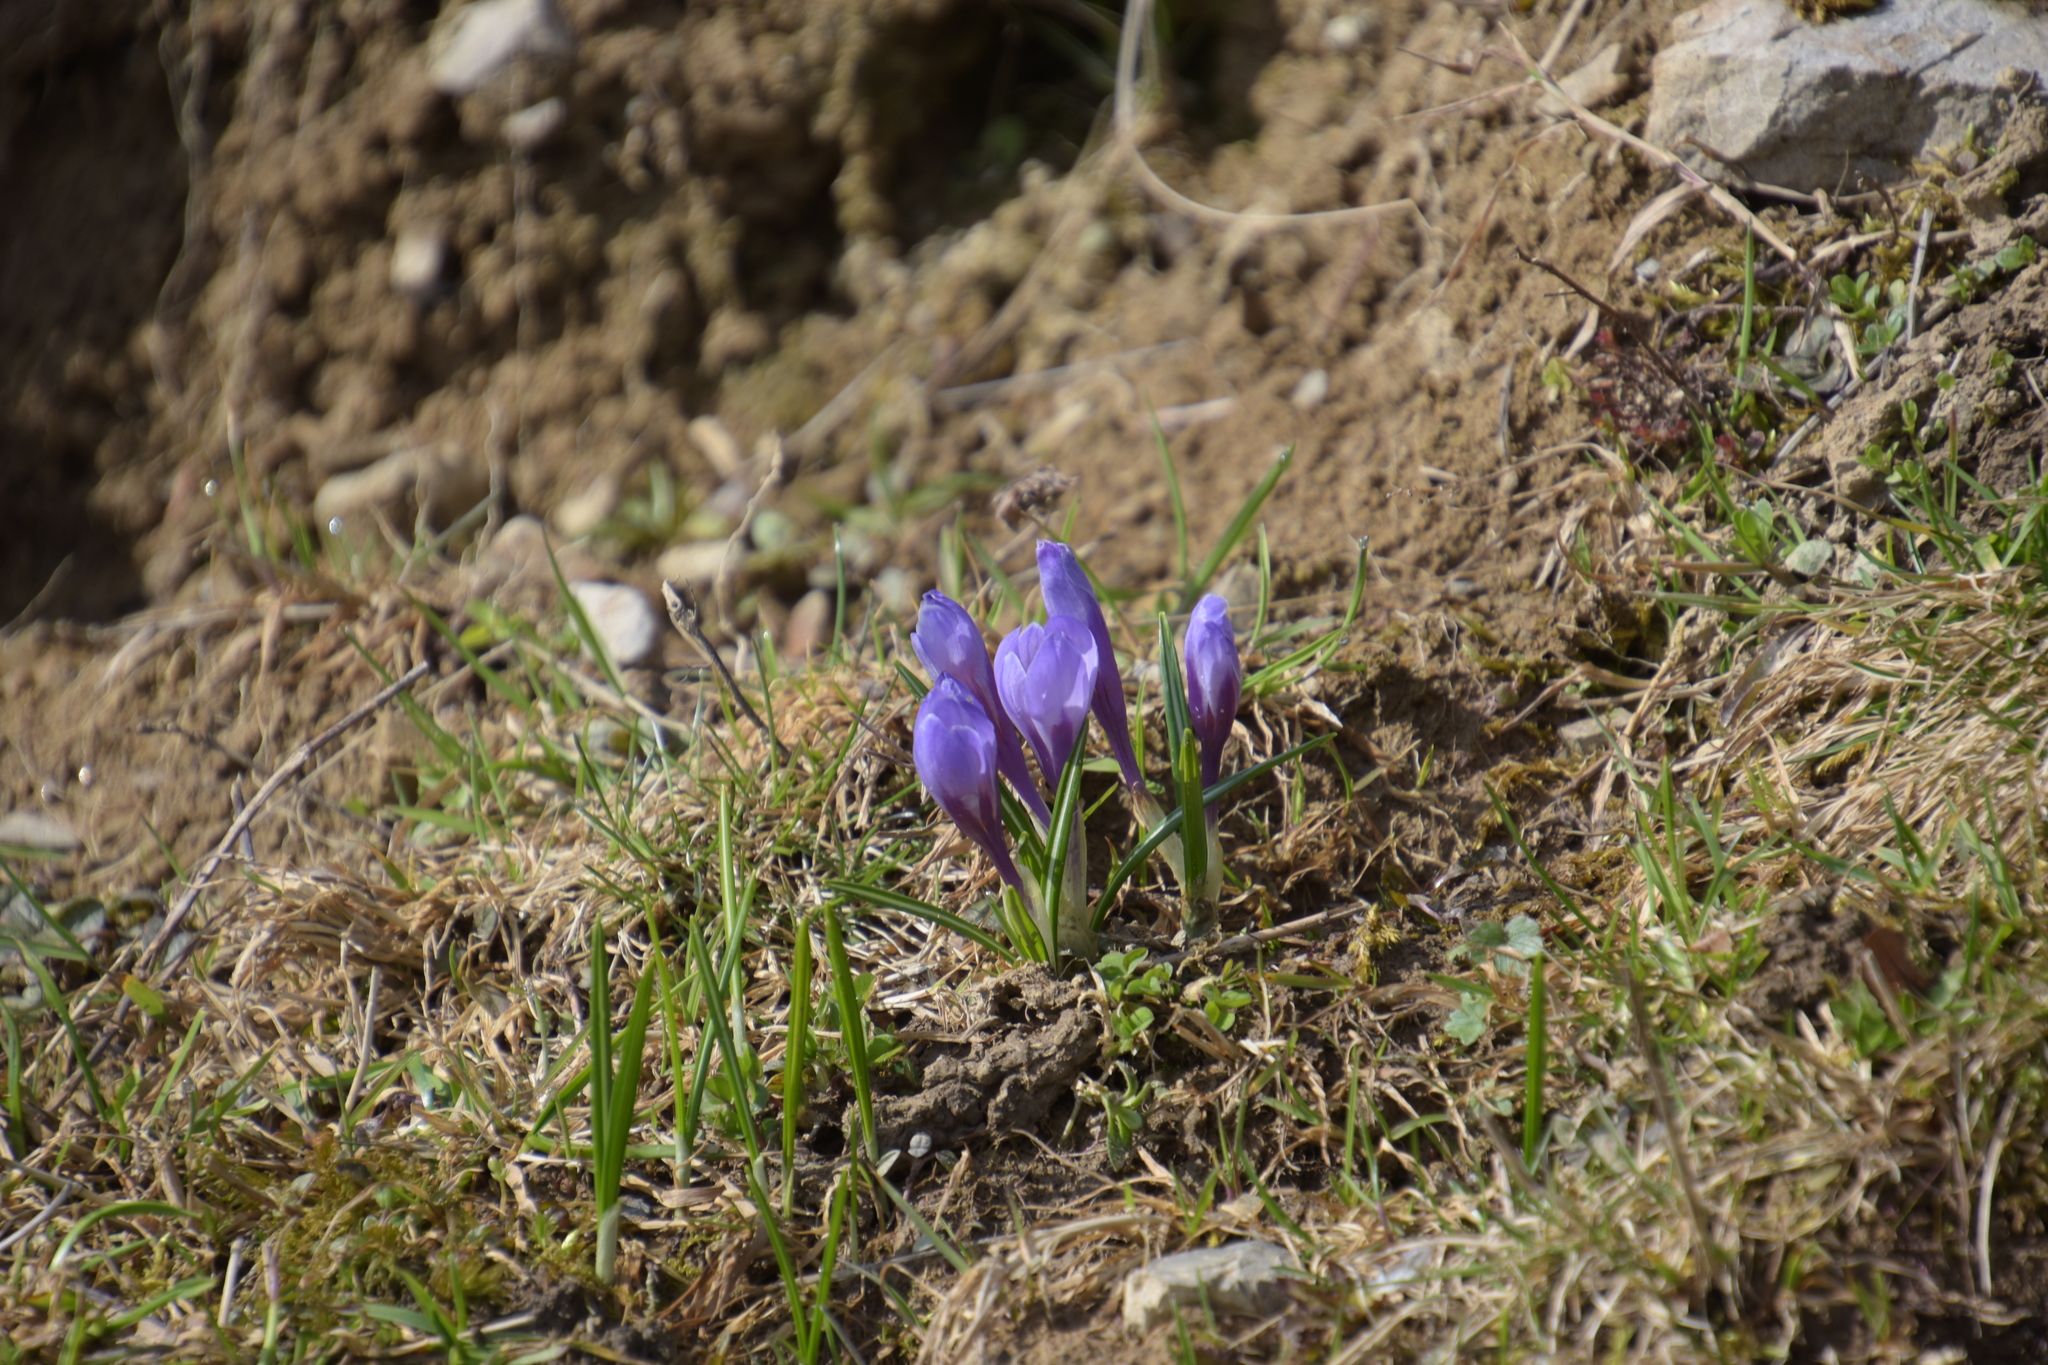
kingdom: Plantae
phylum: Tracheophyta
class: Liliopsida
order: Asparagales
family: Iridaceae
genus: Crocus
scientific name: Crocus vernus
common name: Spring crocus
